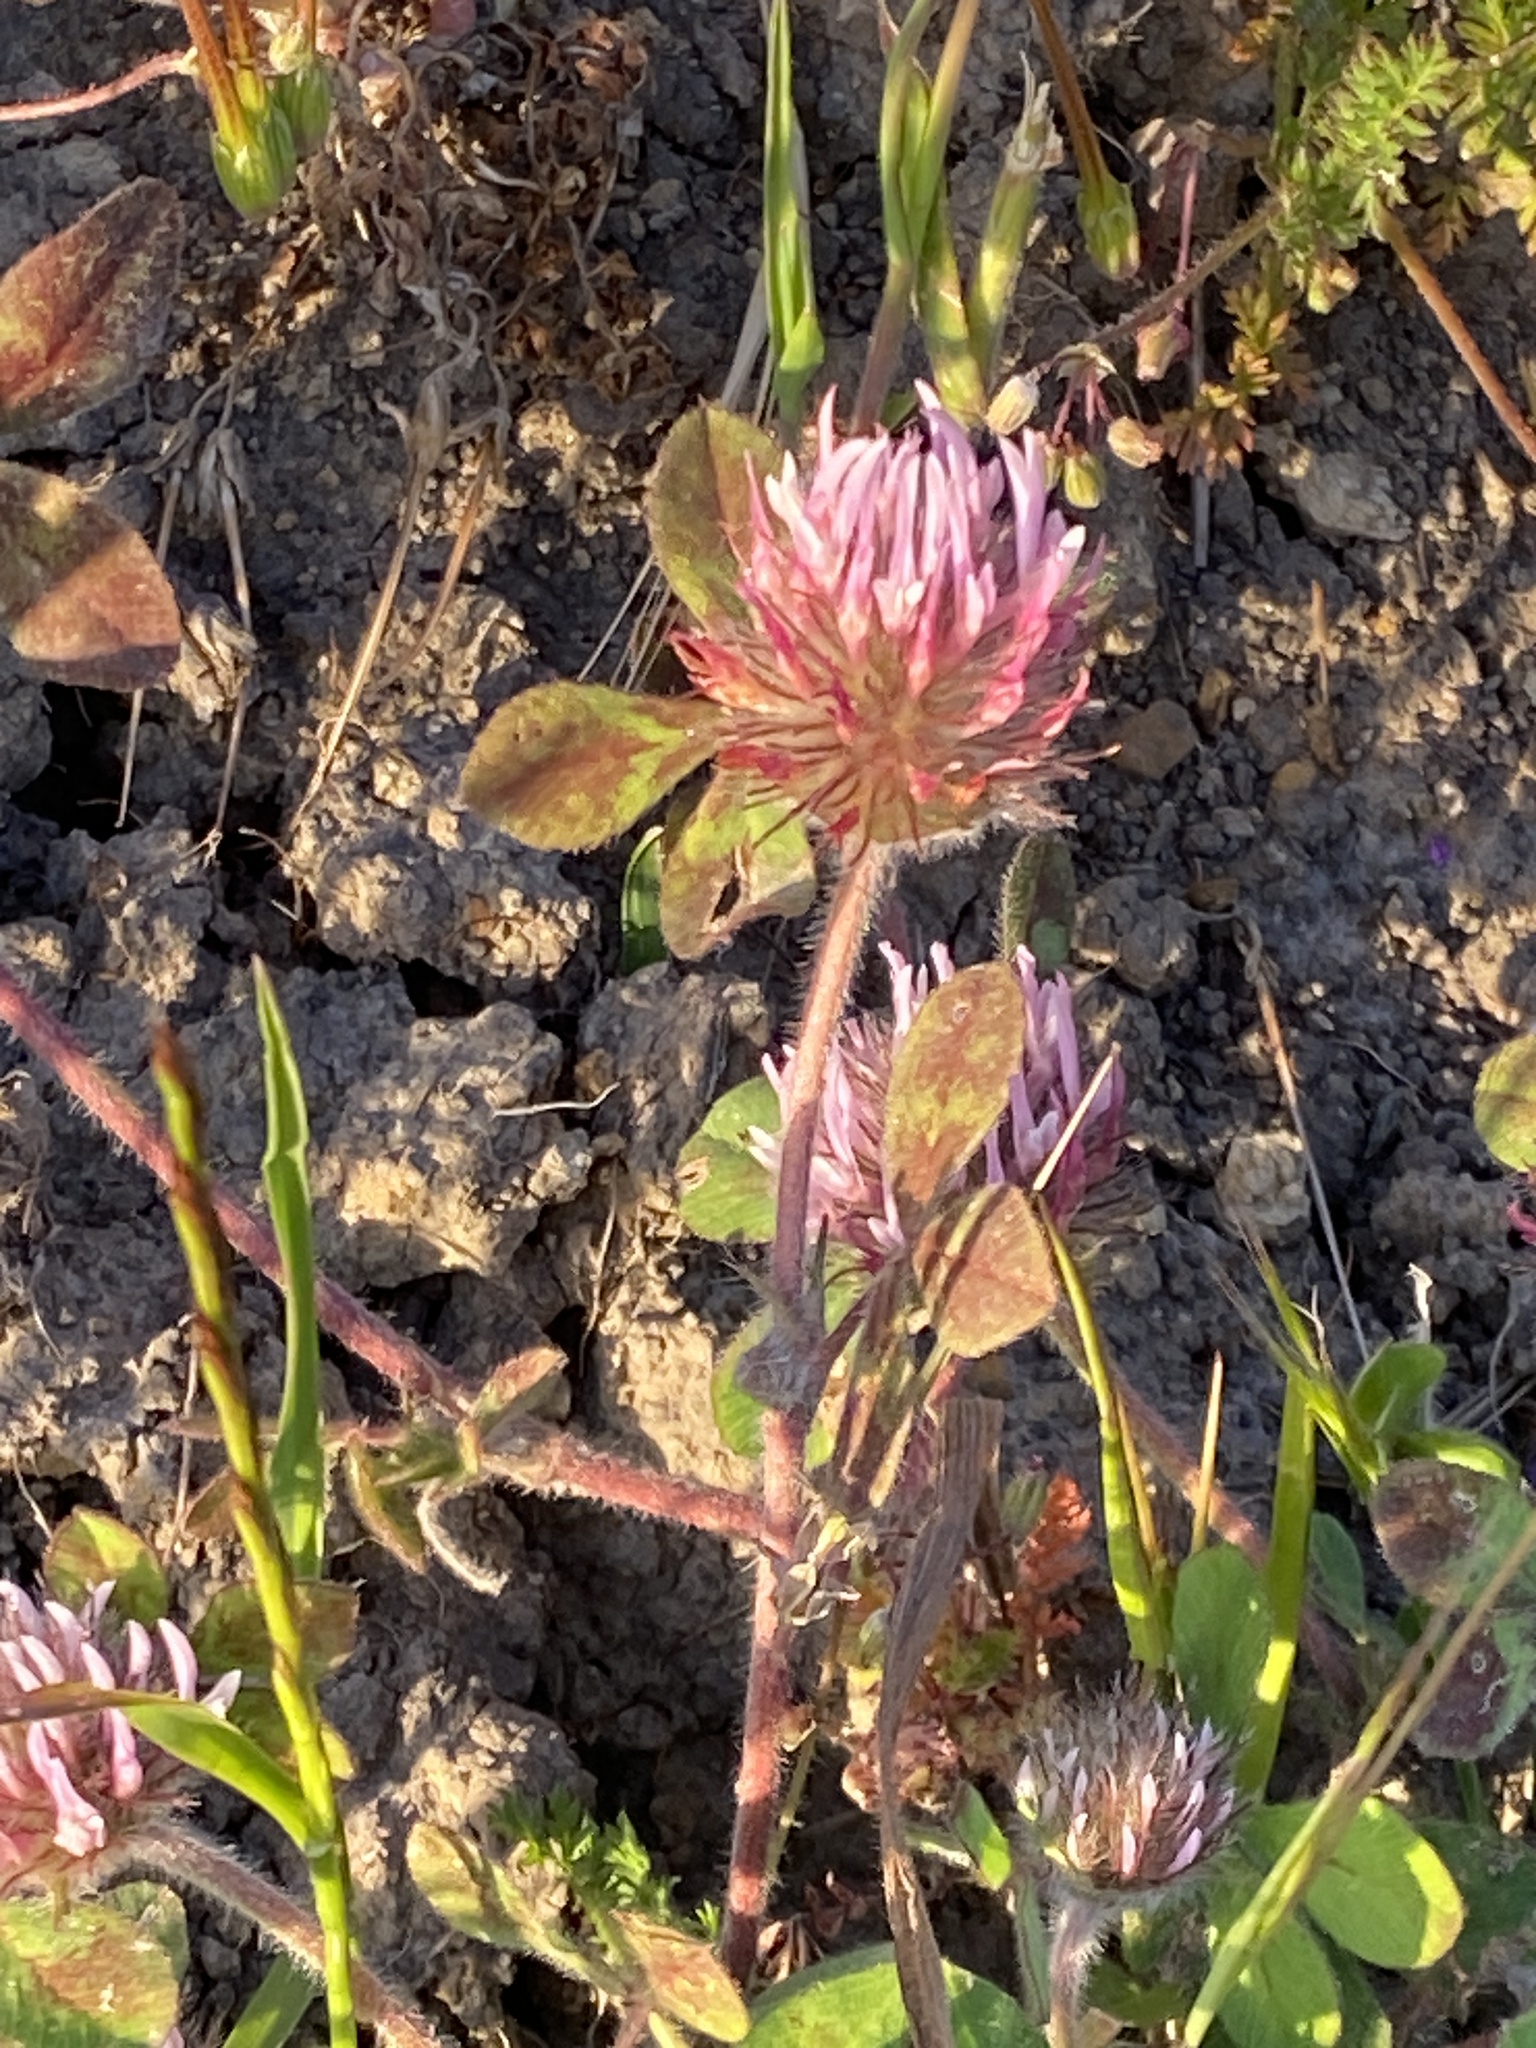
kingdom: Plantae
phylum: Tracheophyta
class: Magnoliopsida
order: Fabales
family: Fabaceae
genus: Trifolium
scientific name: Trifolium hirtum
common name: Rose clover
